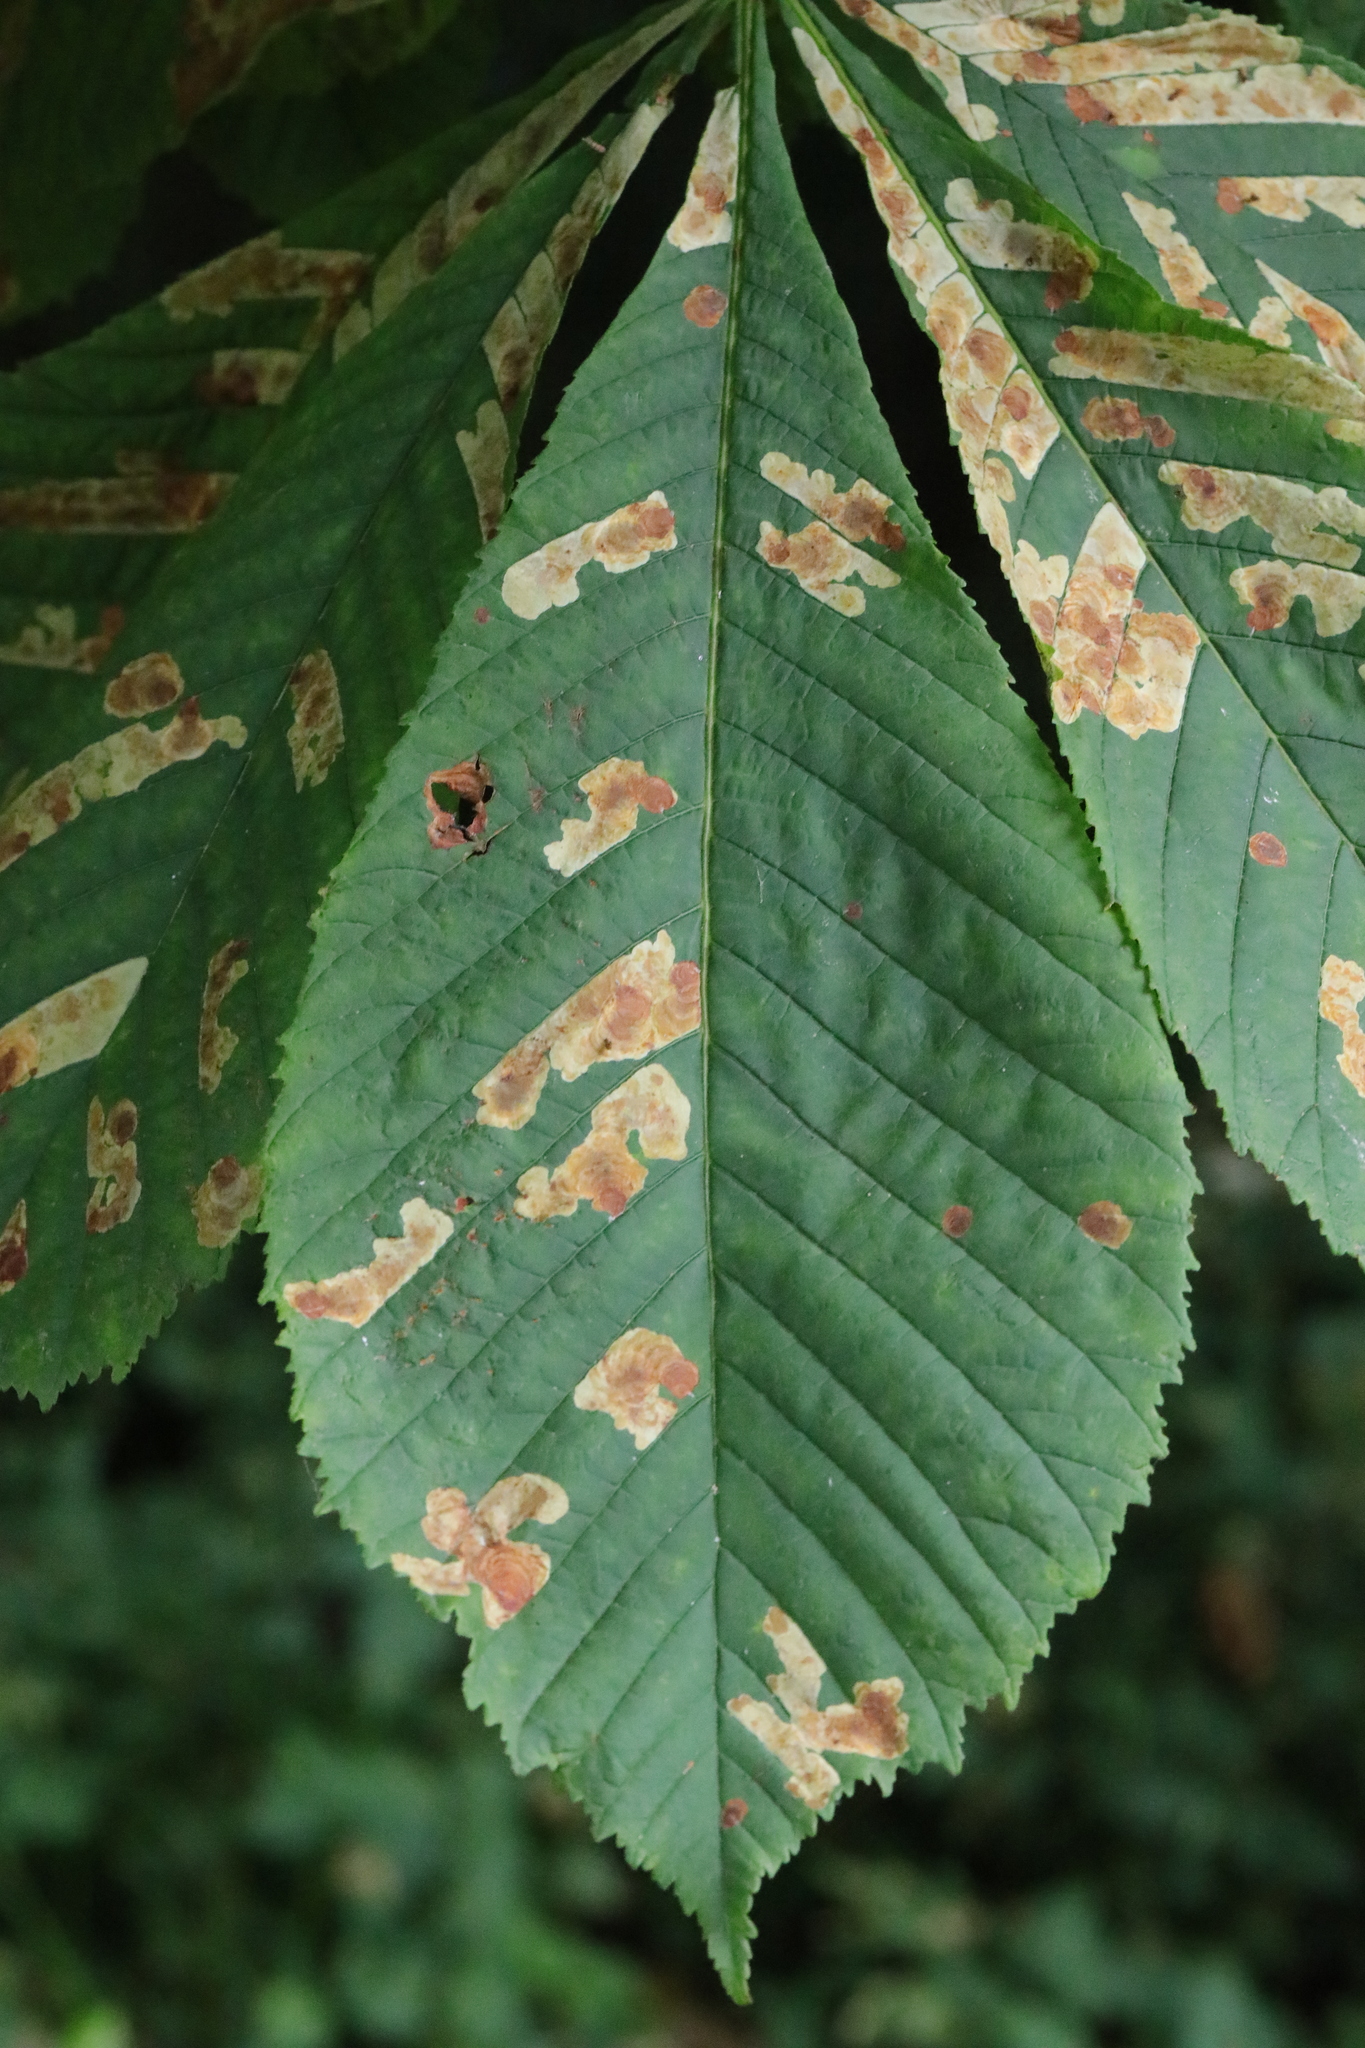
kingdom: Animalia
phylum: Arthropoda
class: Insecta
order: Lepidoptera
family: Gracillariidae
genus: Cameraria
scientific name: Cameraria ohridella
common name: Horse-chestnut leaf-miner
